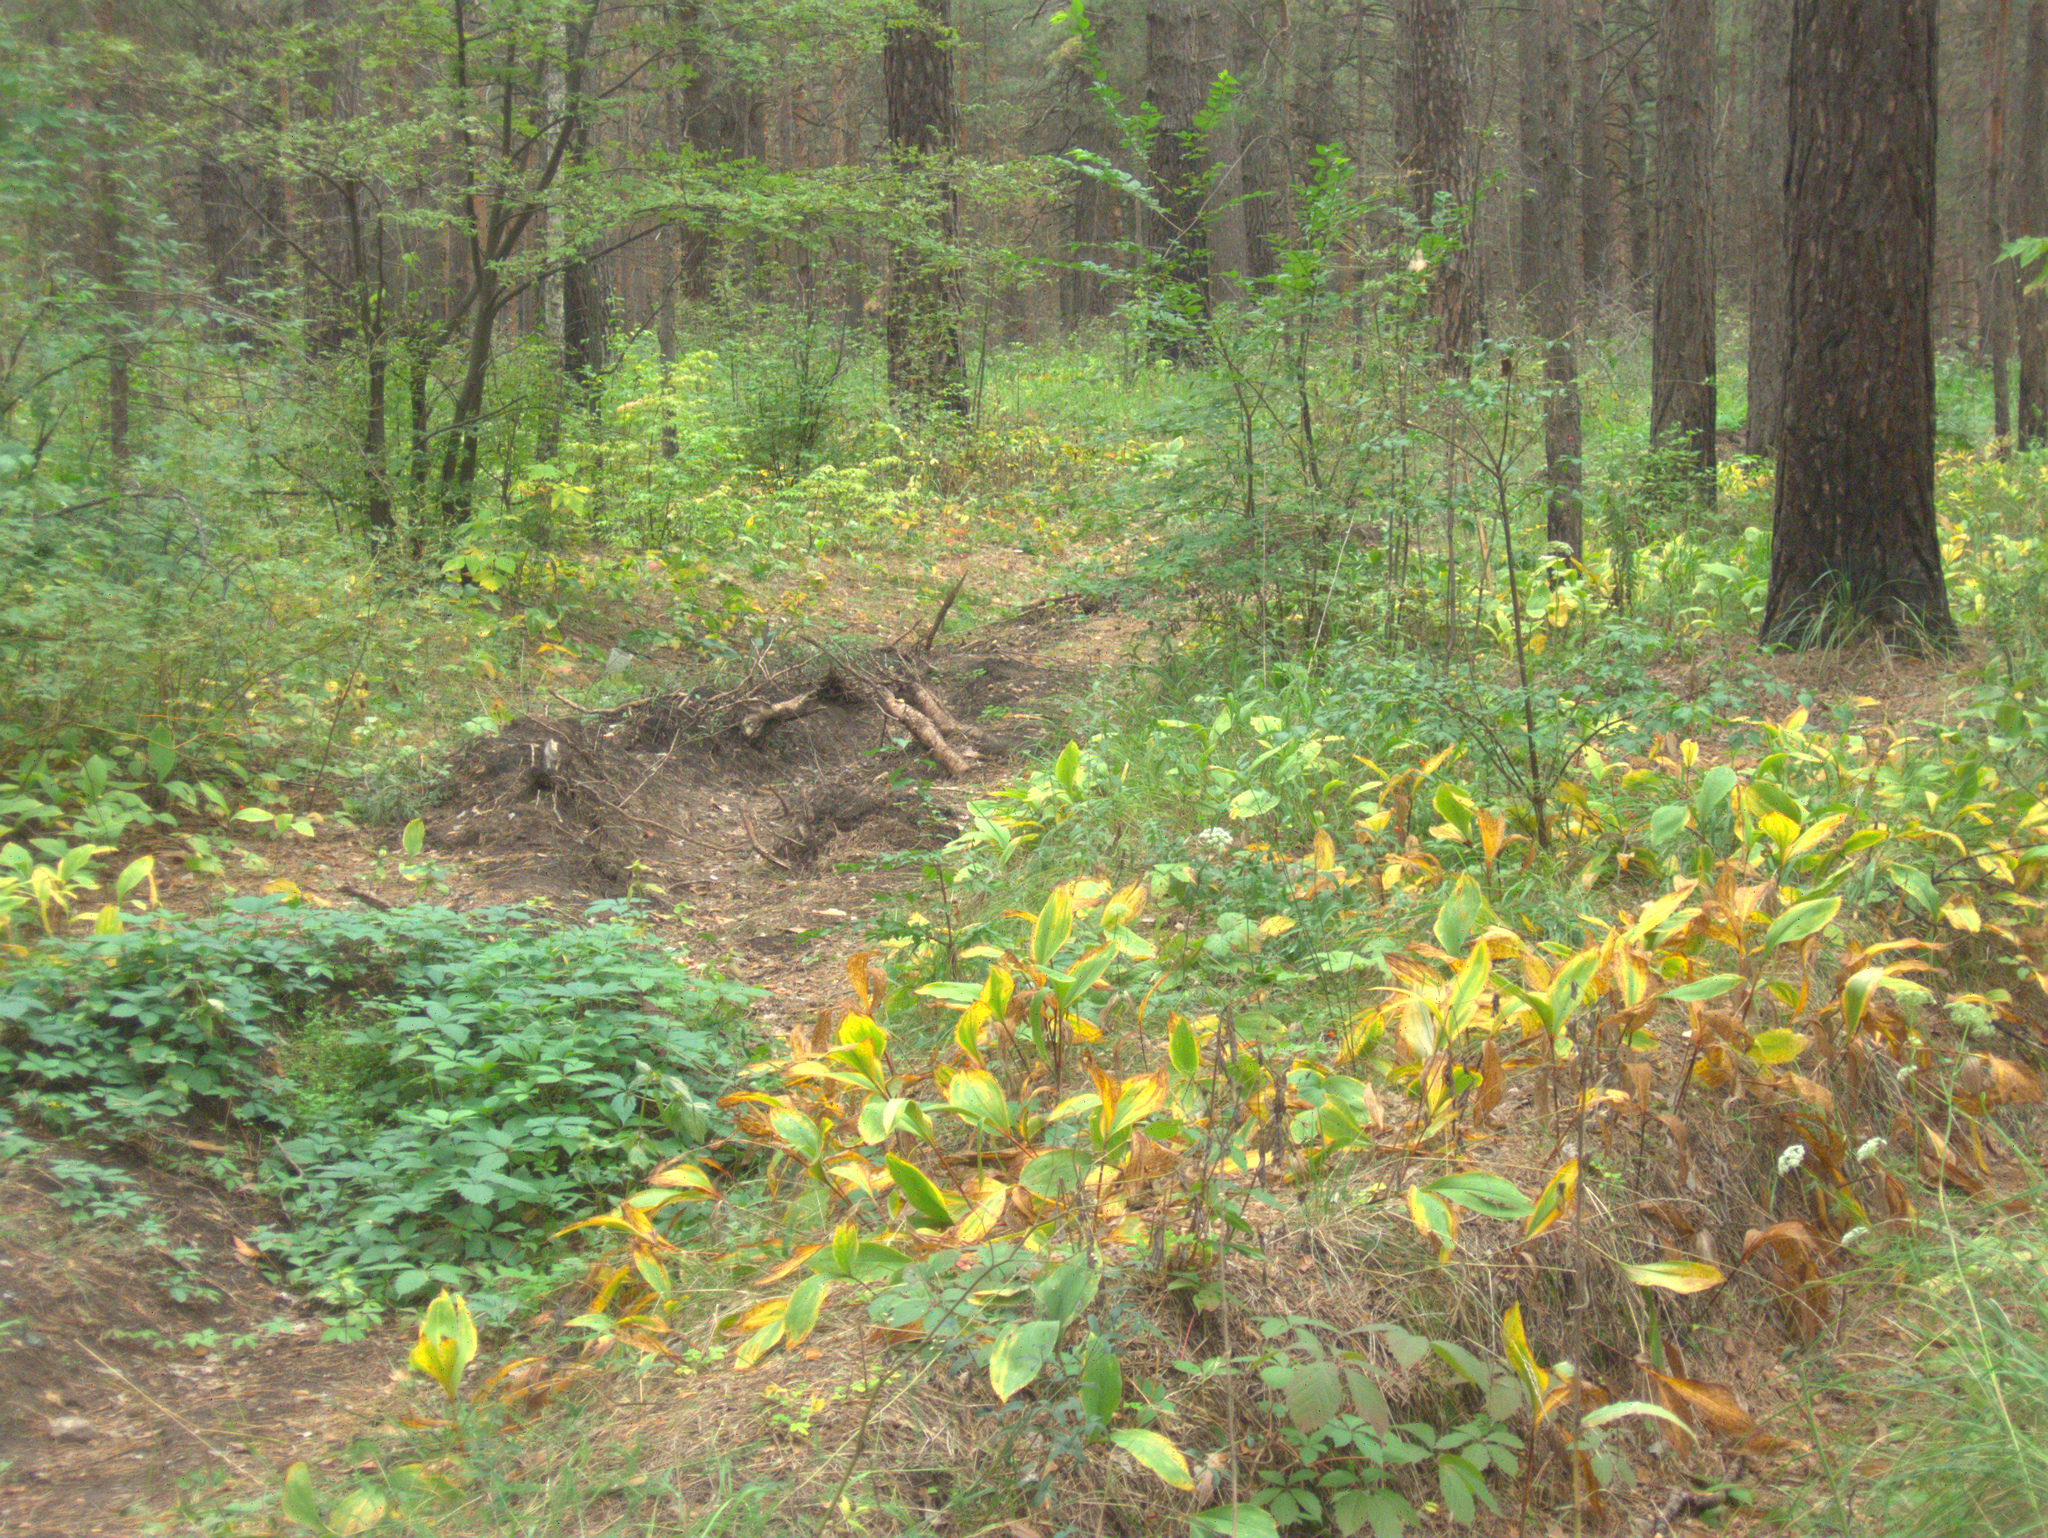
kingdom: Plantae
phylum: Tracheophyta
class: Liliopsida
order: Asparagales
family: Asparagaceae
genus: Convallaria
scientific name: Convallaria majalis
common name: Lily-of-the-valley
